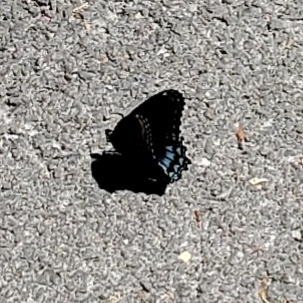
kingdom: Animalia
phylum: Arthropoda
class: Insecta
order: Lepidoptera
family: Nymphalidae
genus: Limenitis
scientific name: Limenitis astyanax
